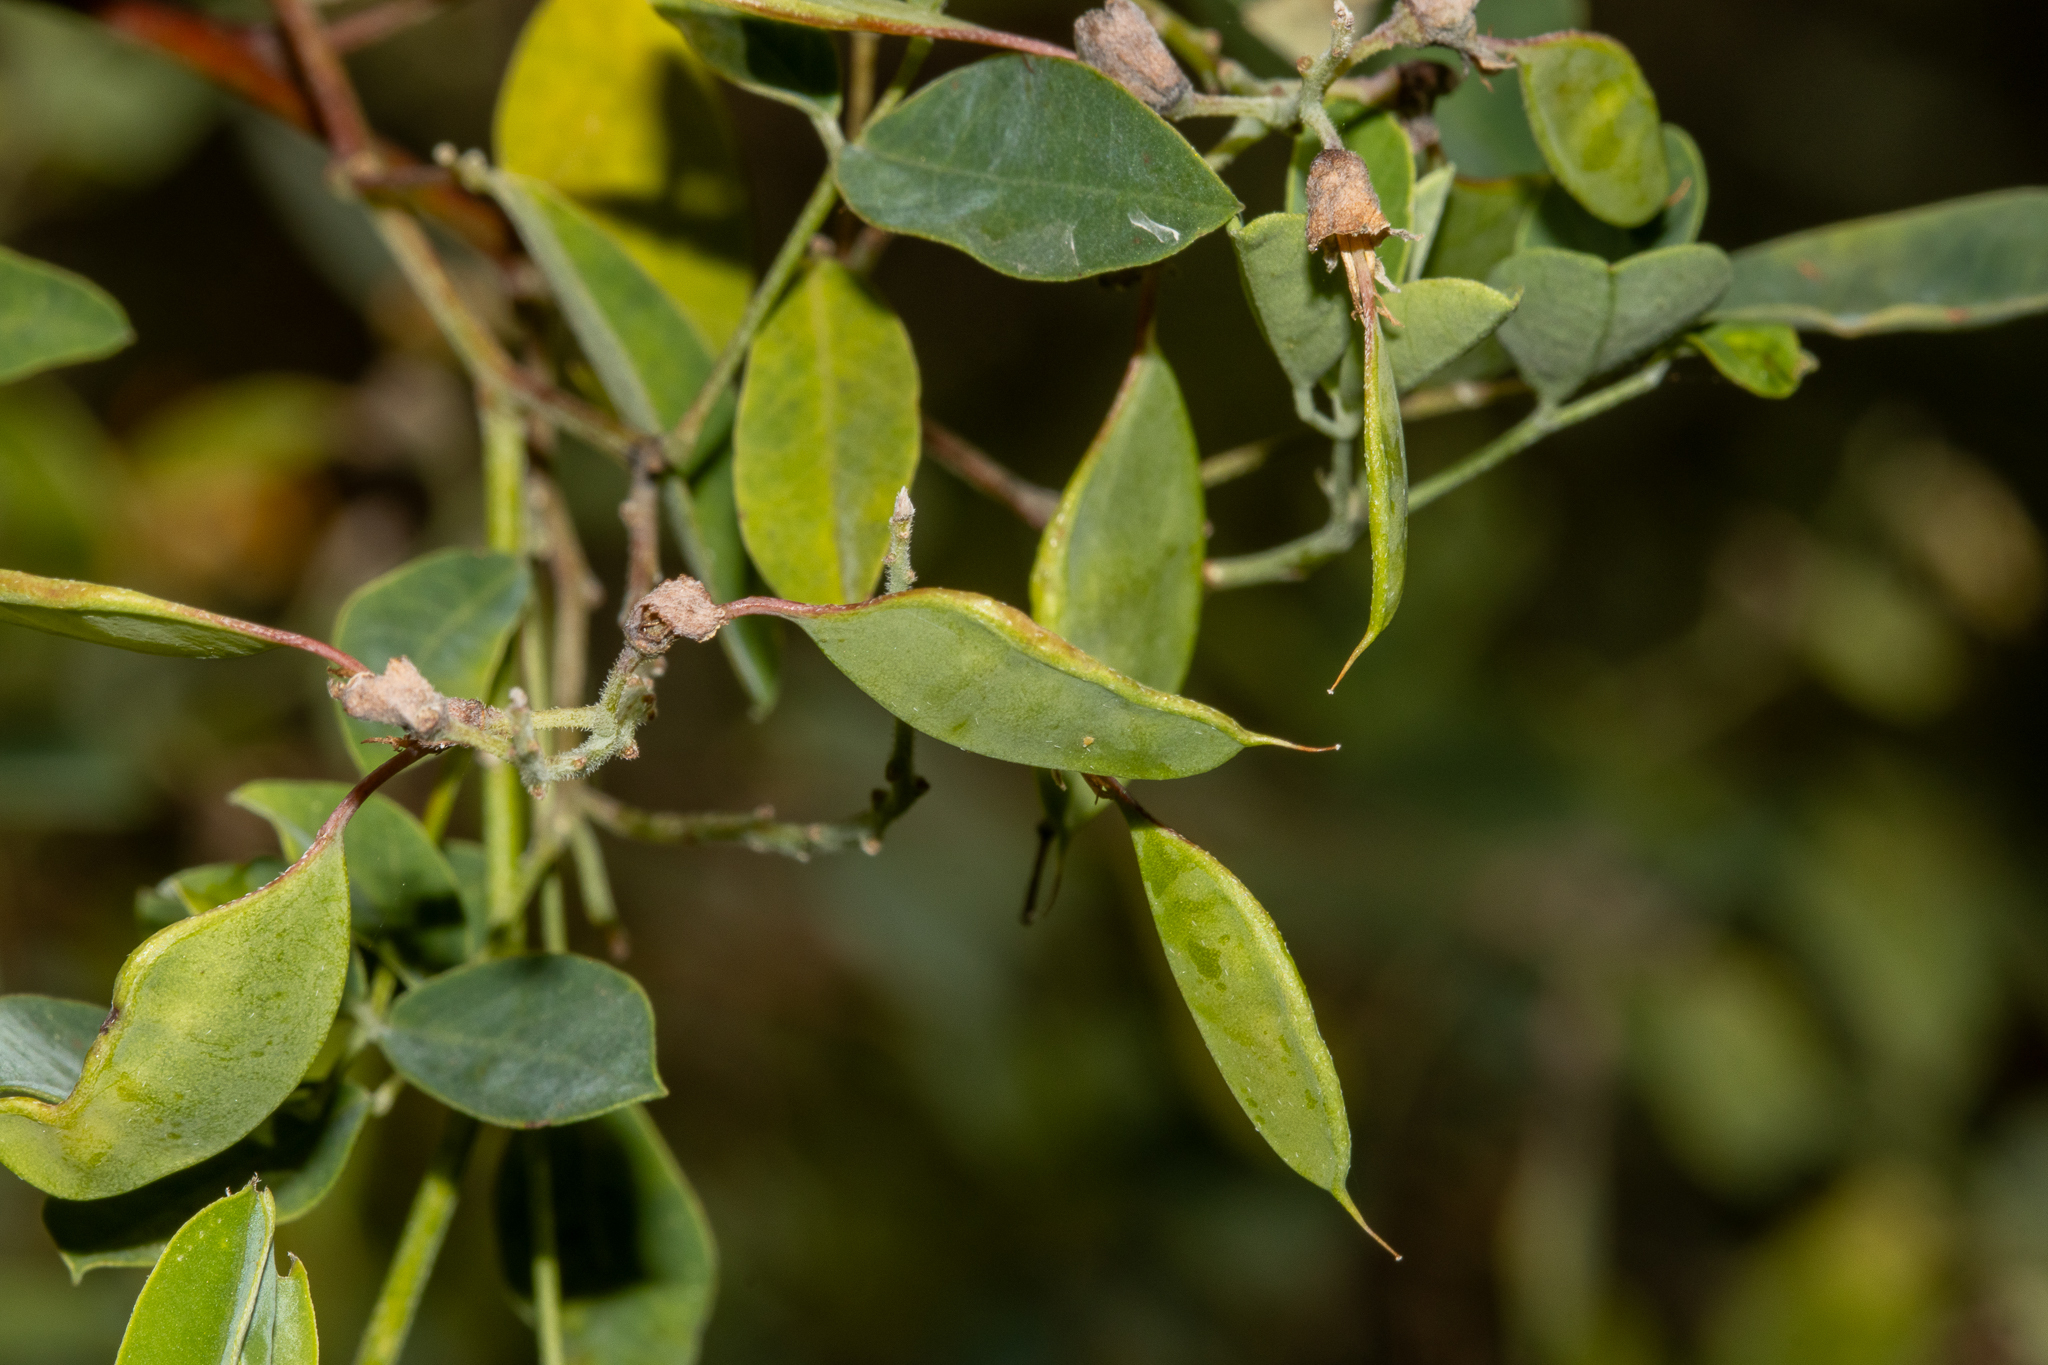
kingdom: Plantae
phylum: Tracheophyta
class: Magnoliopsida
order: Fabales
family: Fabaceae
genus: Goodia
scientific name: Goodia medicaginea
